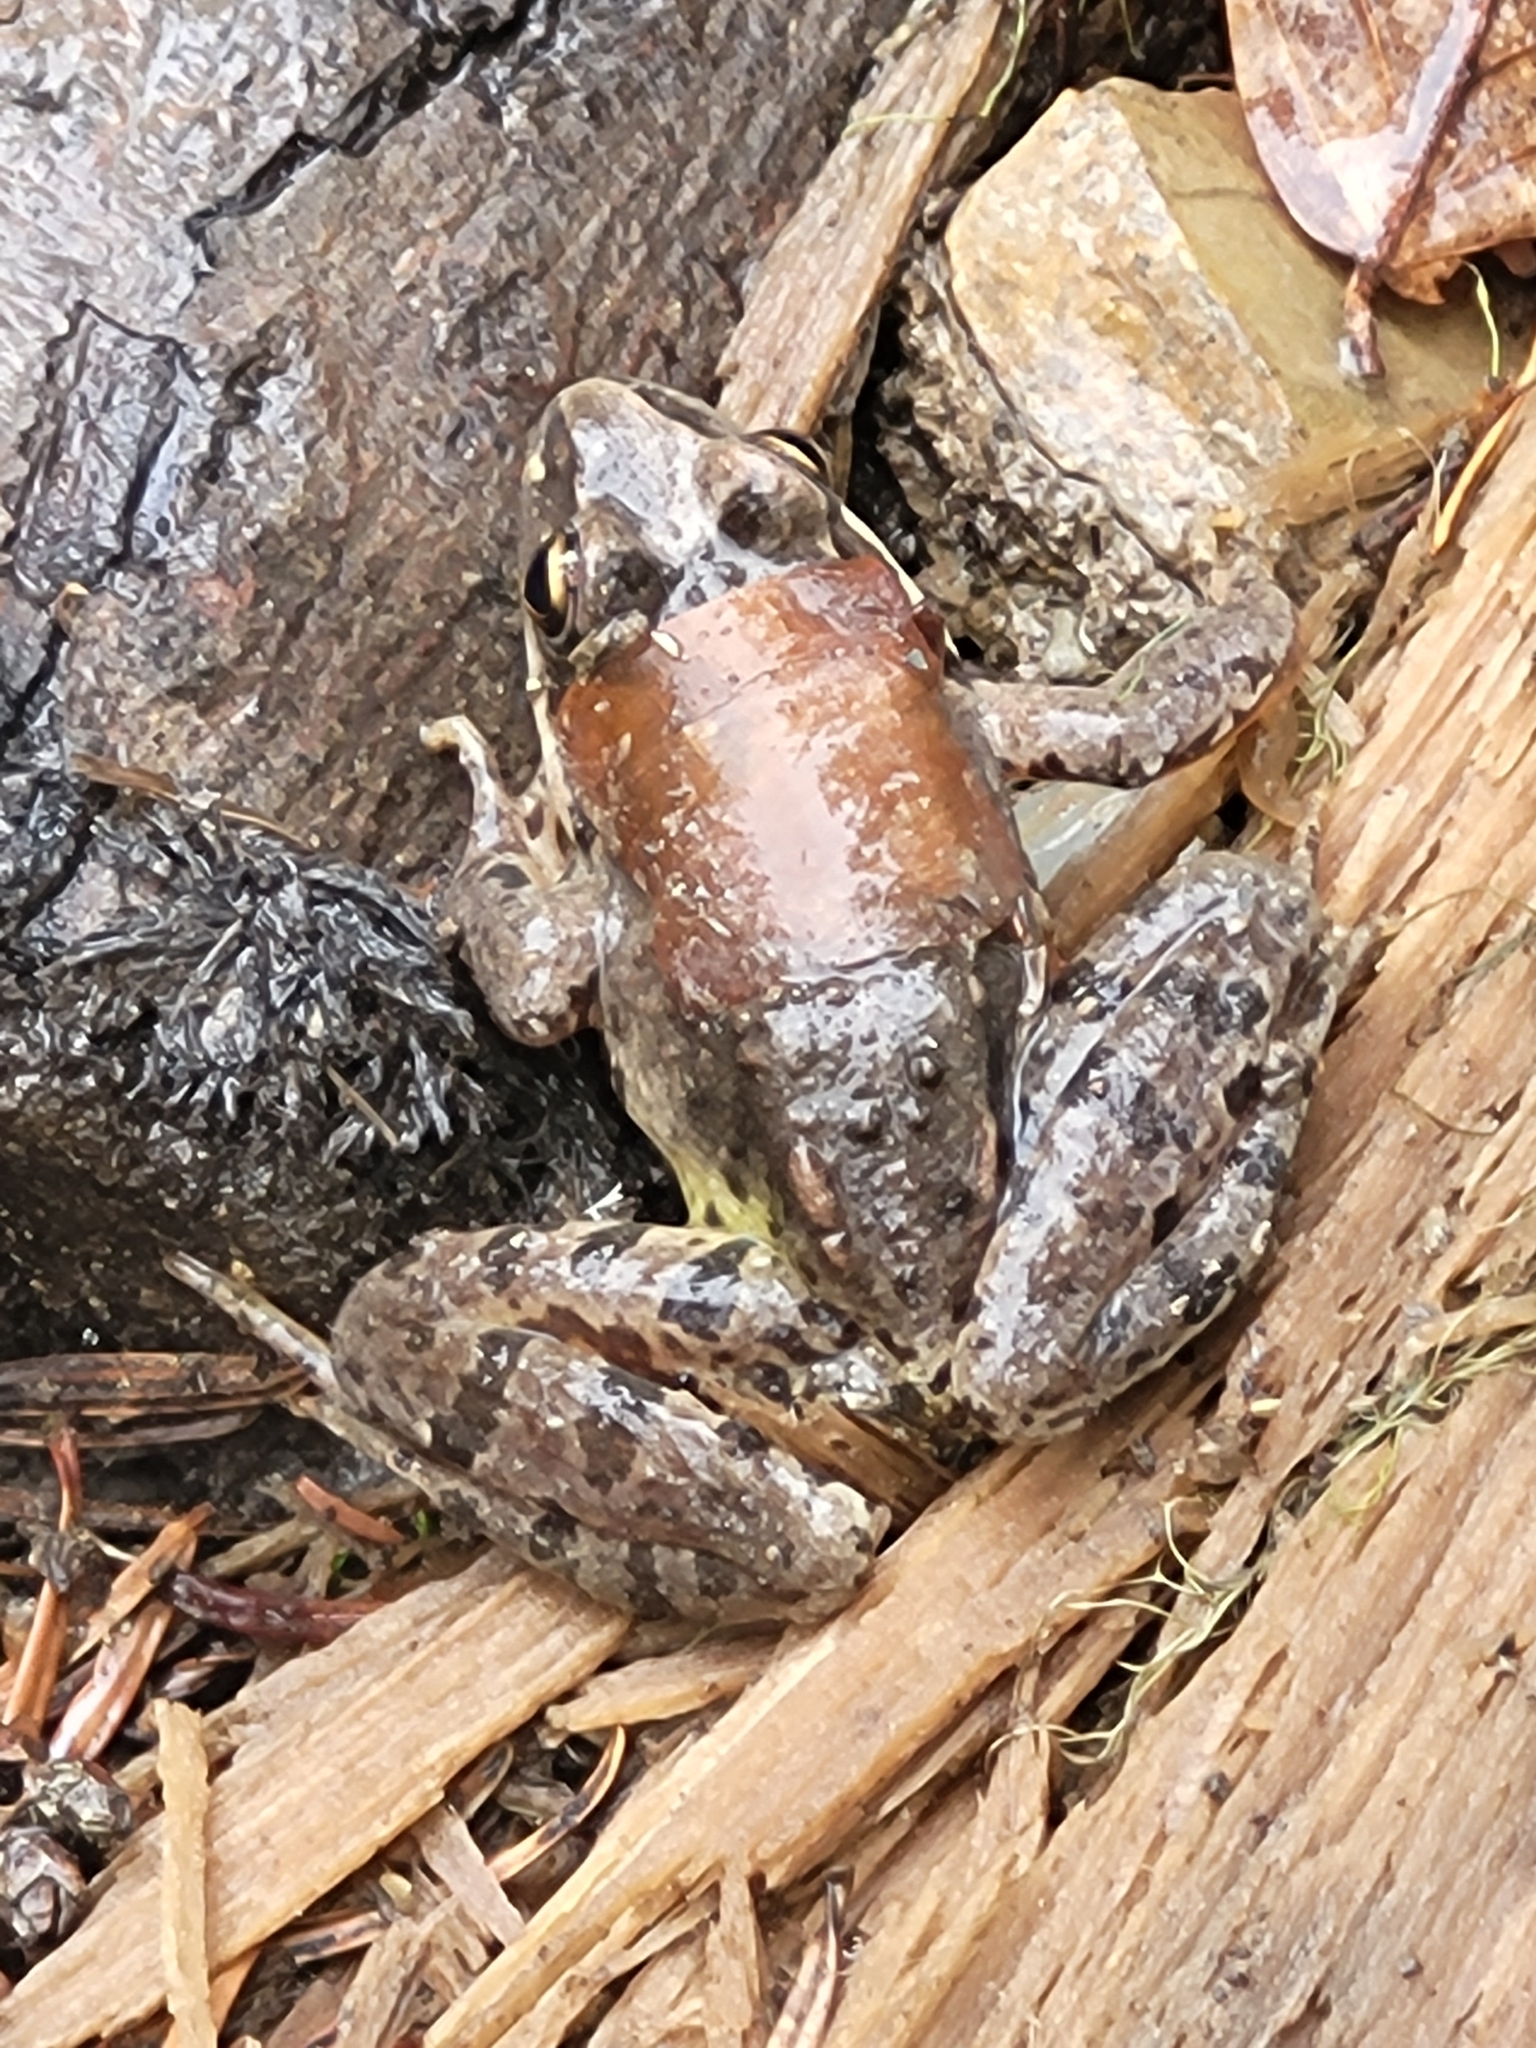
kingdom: Animalia
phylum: Chordata
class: Amphibia
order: Anura
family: Ranidae
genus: Rana
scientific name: Rana macrocnemis
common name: Banded frog
